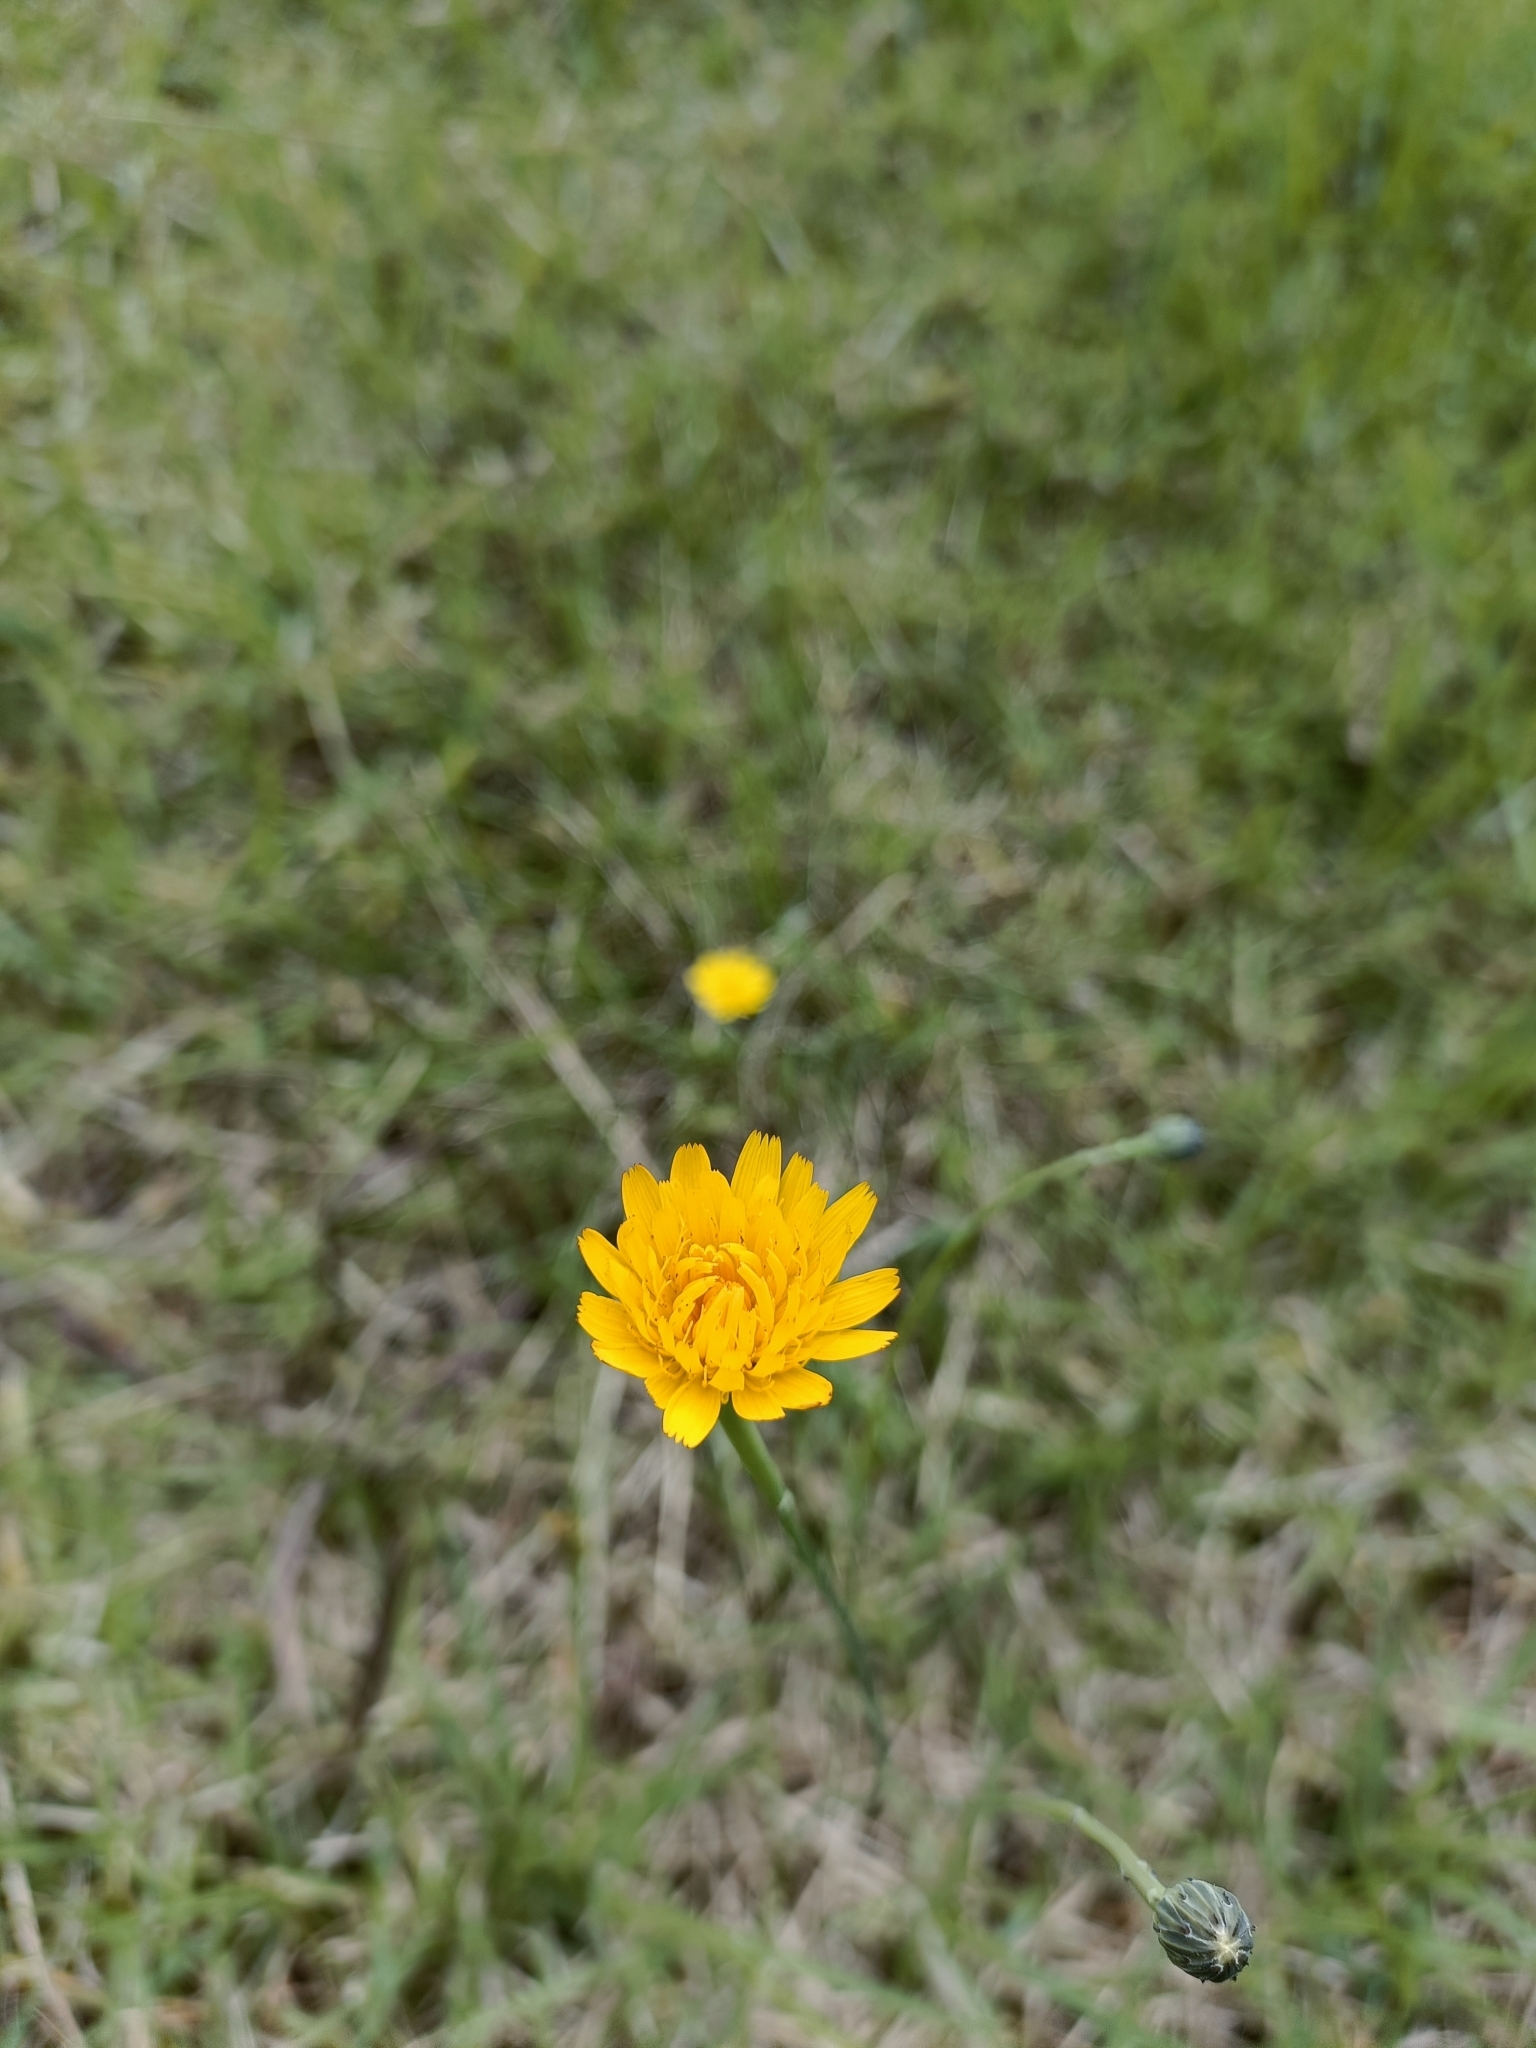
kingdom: Plantae
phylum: Tracheophyta
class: Magnoliopsida
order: Asterales
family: Asteraceae
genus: Hypochaeris
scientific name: Hypochaeris radicata
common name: Flatweed
